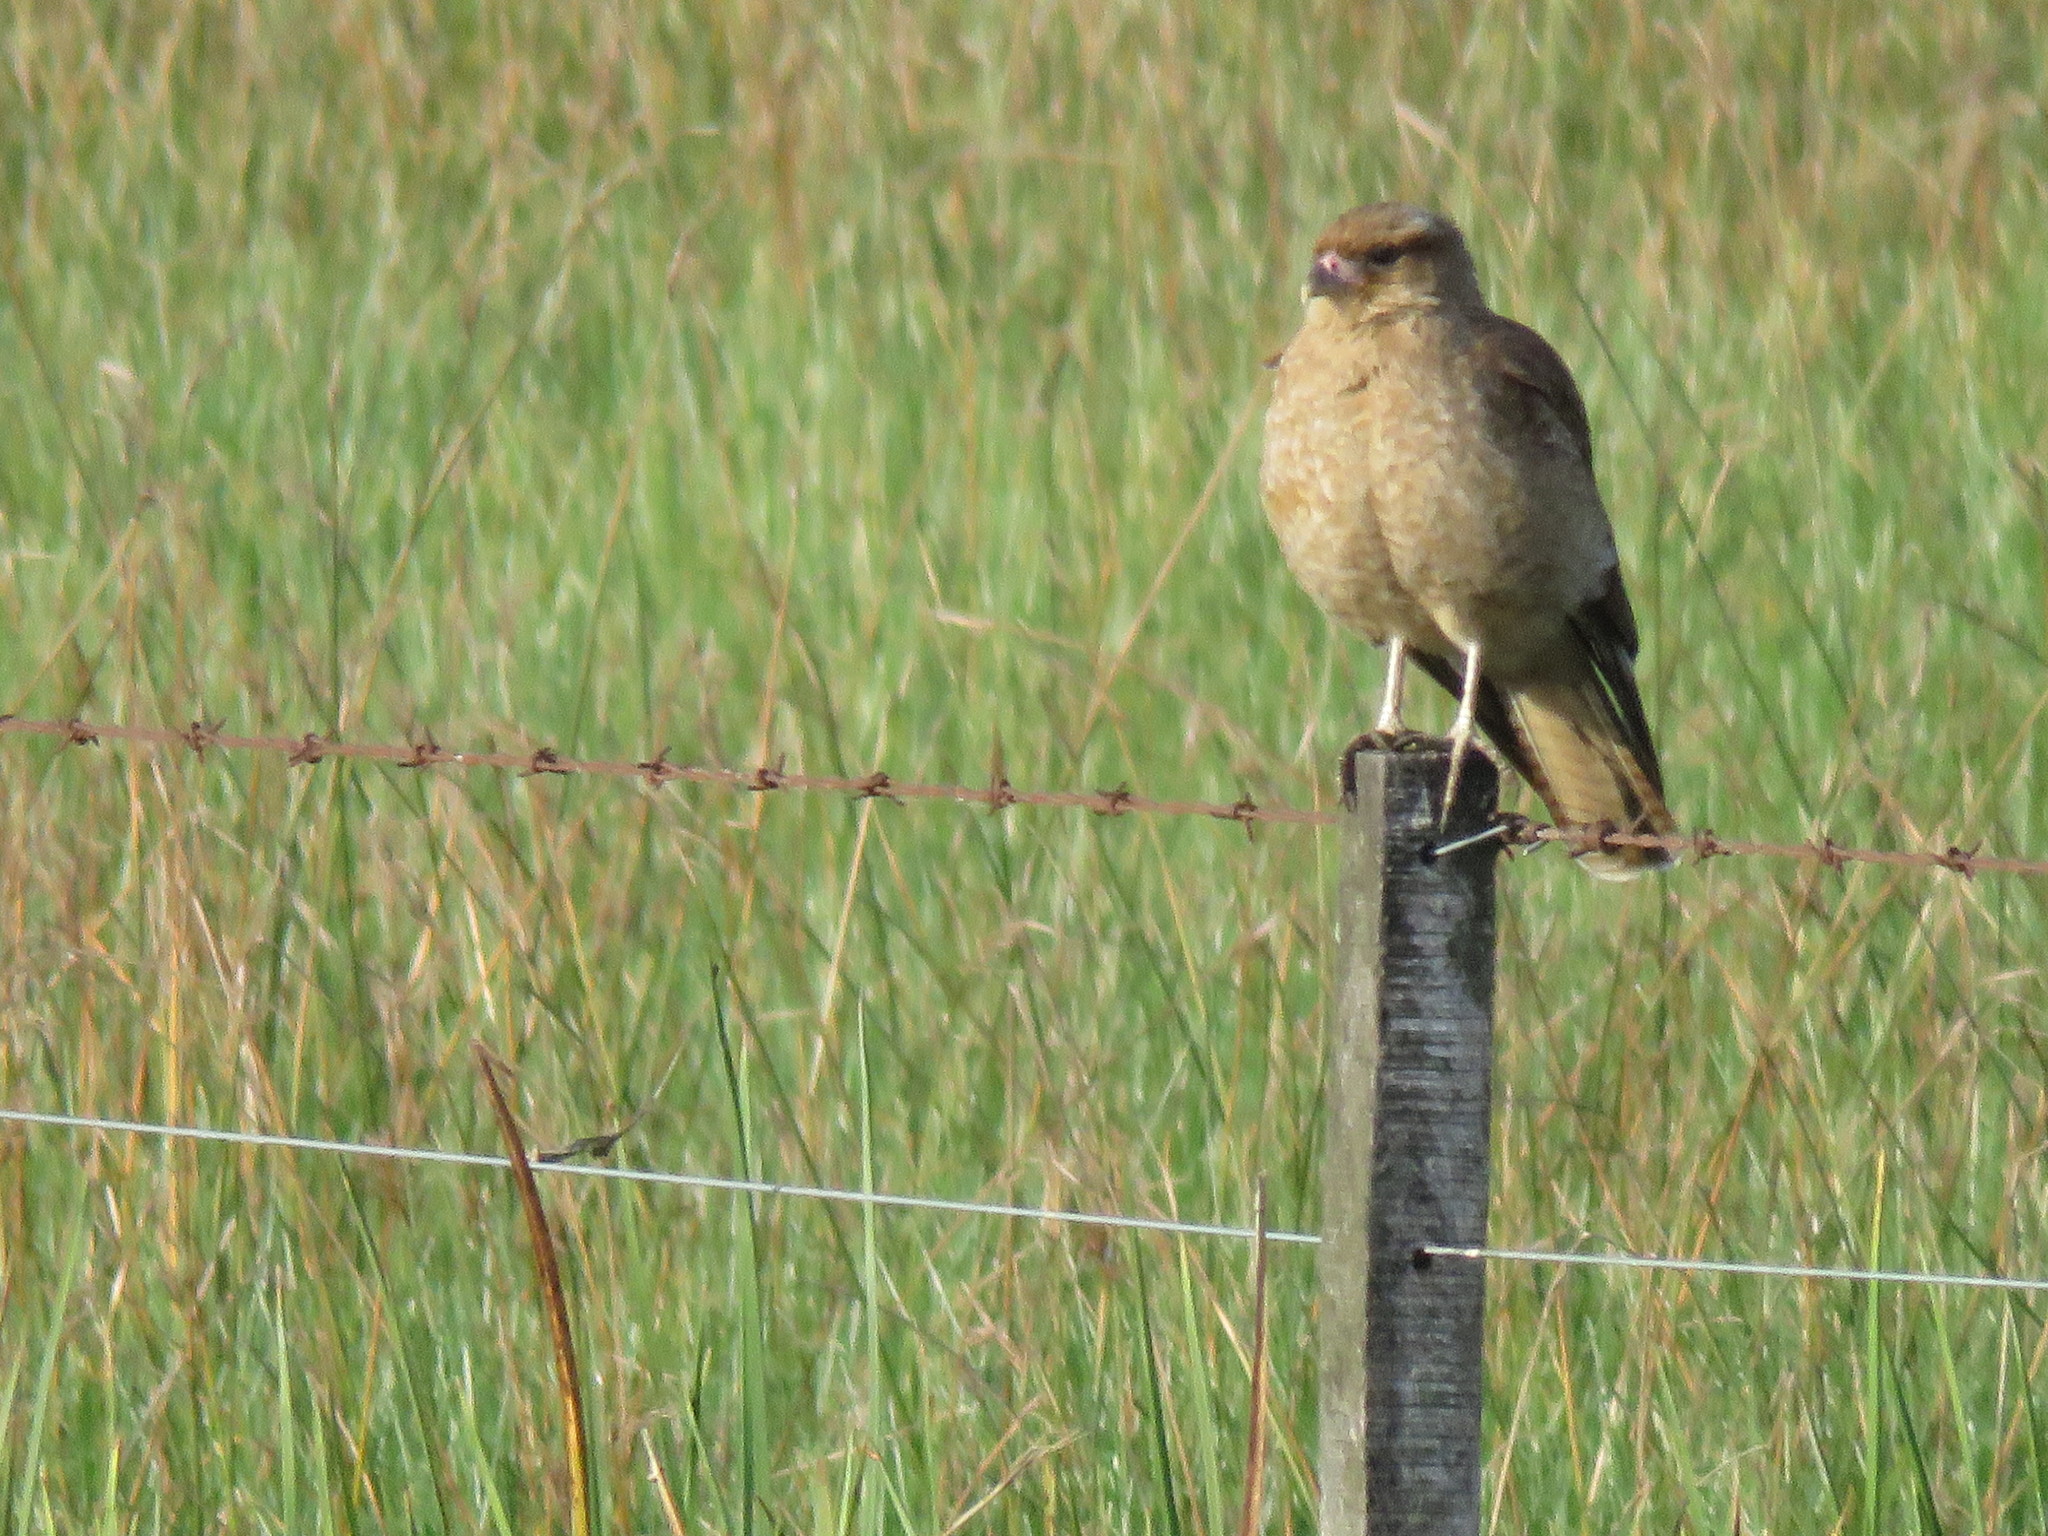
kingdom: Animalia
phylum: Chordata
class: Aves
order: Falconiformes
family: Falconidae
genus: Daptrius
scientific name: Daptrius
